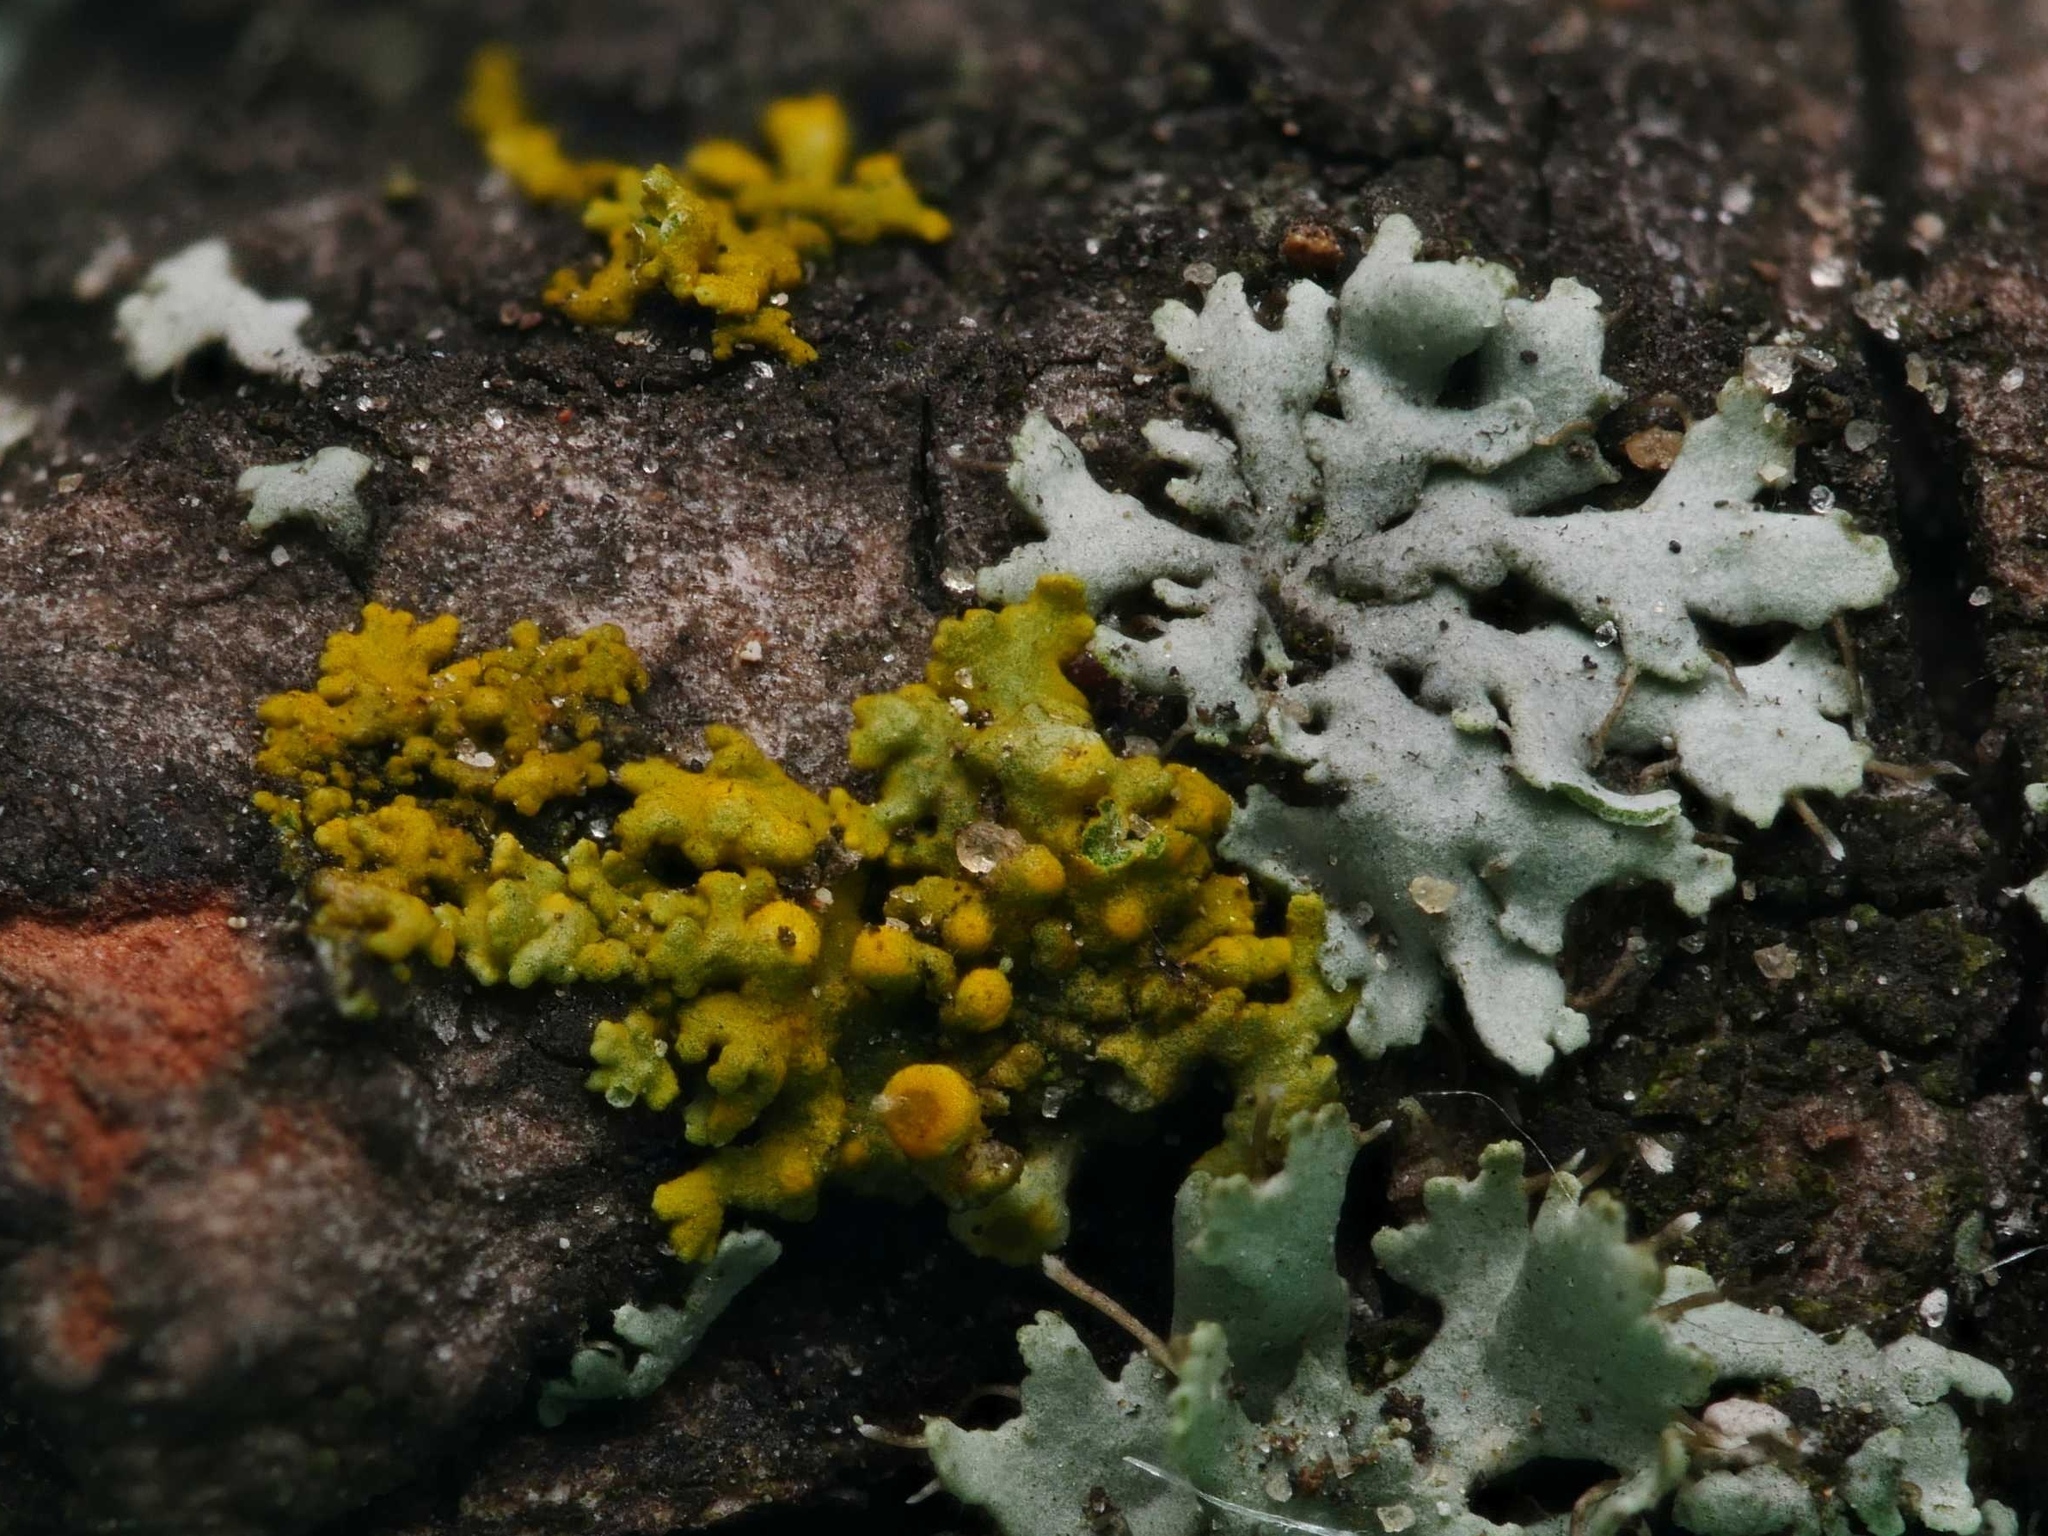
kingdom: Fungi
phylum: Ascomycota
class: Lecanoromycetes
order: Teloschistales
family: Teloschistaceae
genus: Polycauliona
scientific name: Polycauliona polycarpa
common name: Pin-cushion sunburst lichen
